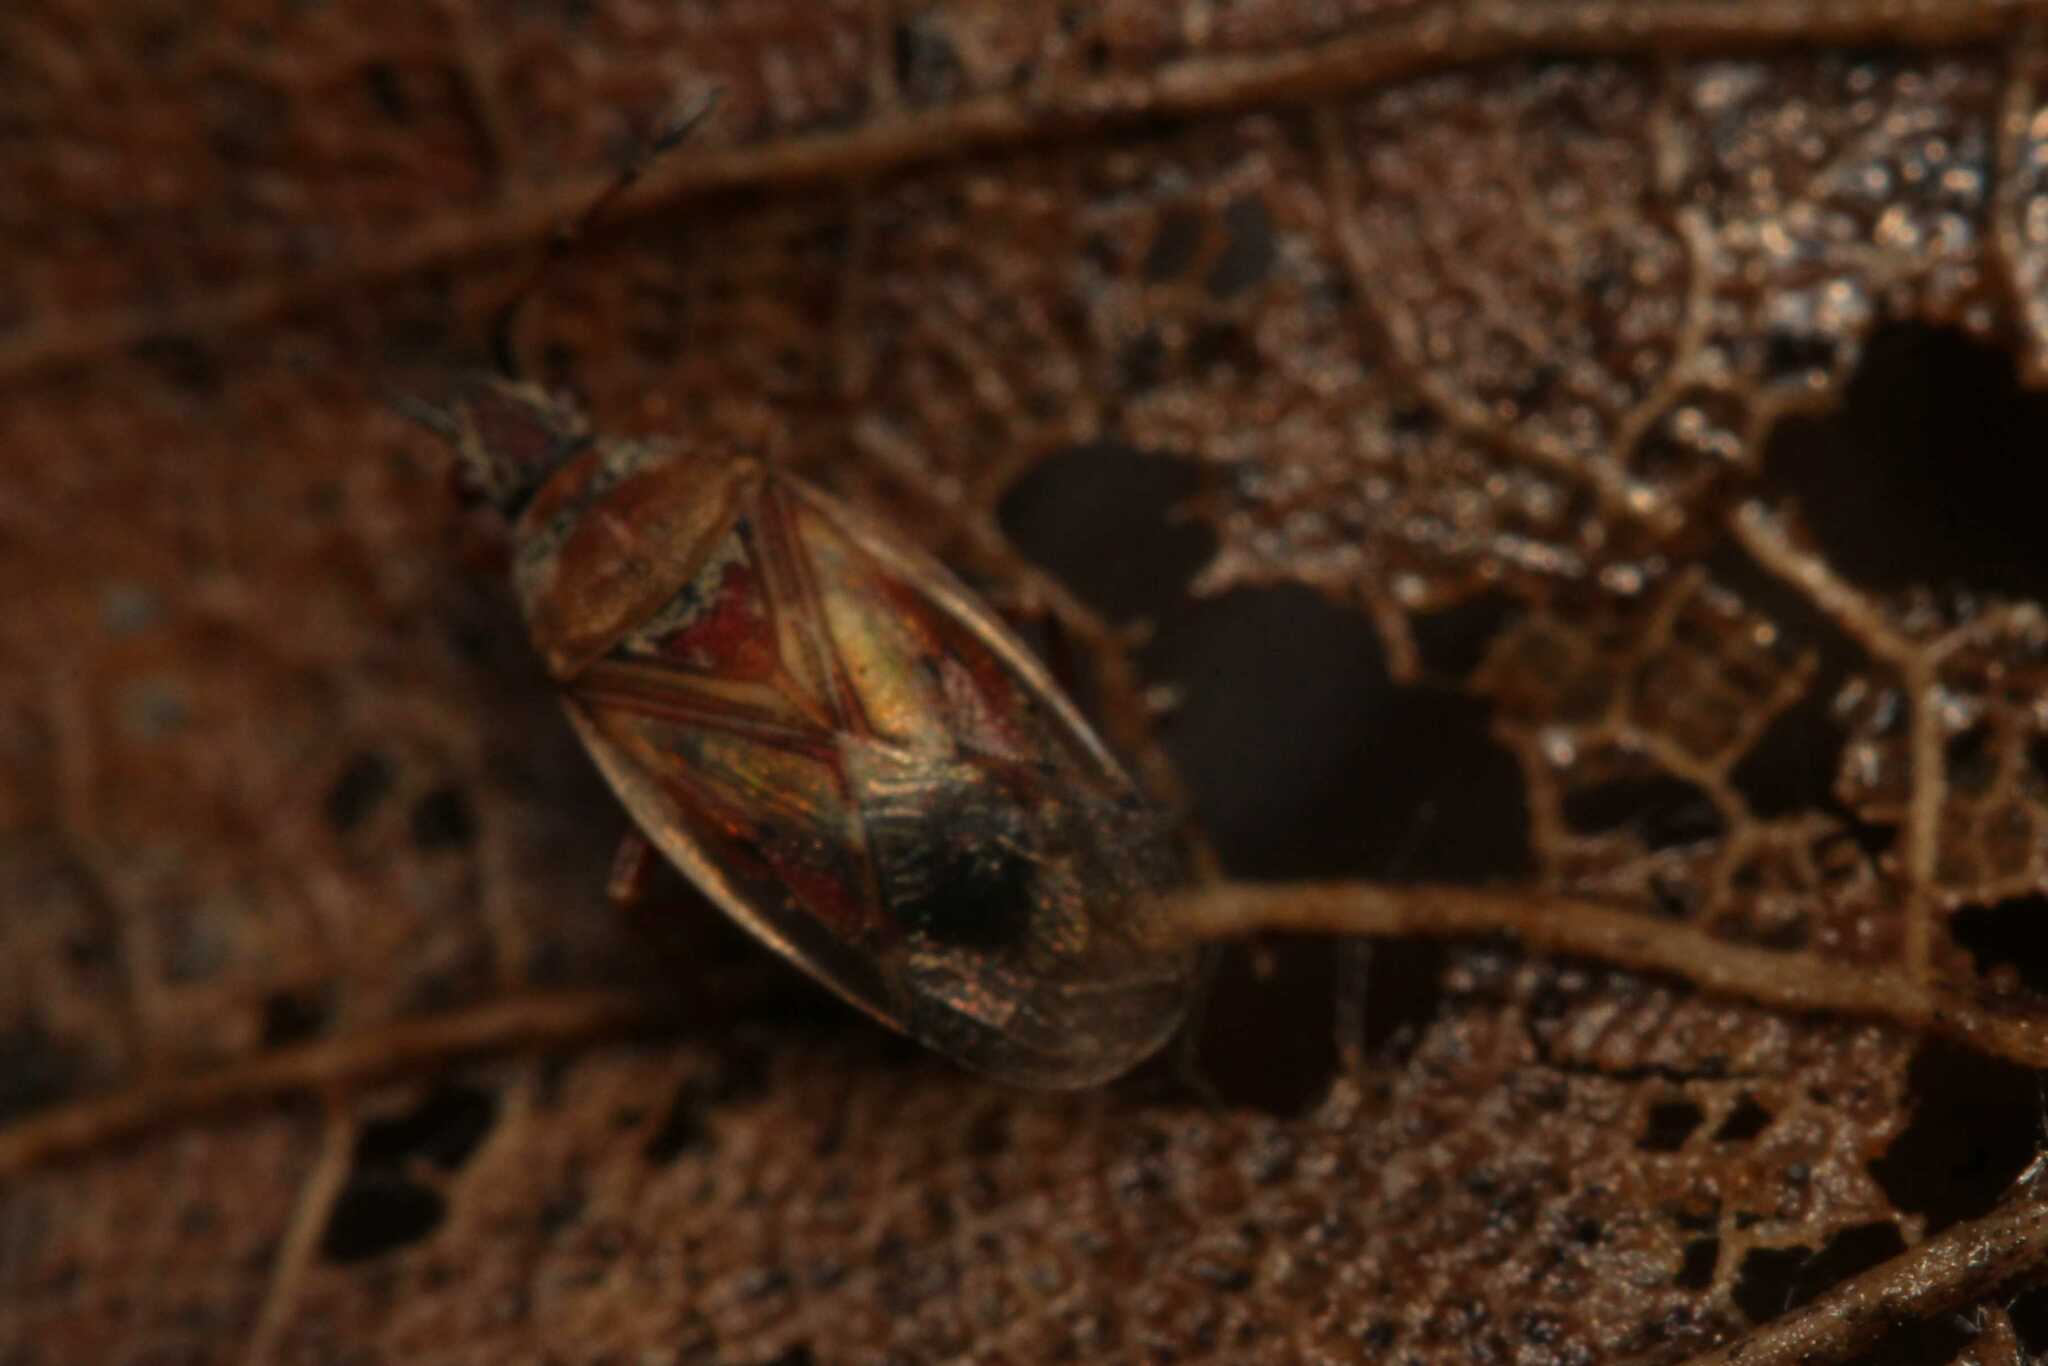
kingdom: Animalia
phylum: Arthropoda
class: Insecta
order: Hemiptera
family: Lygaeidae
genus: Kleidocerys
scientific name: Kleidocerys resedae
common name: Birch catkin bug
